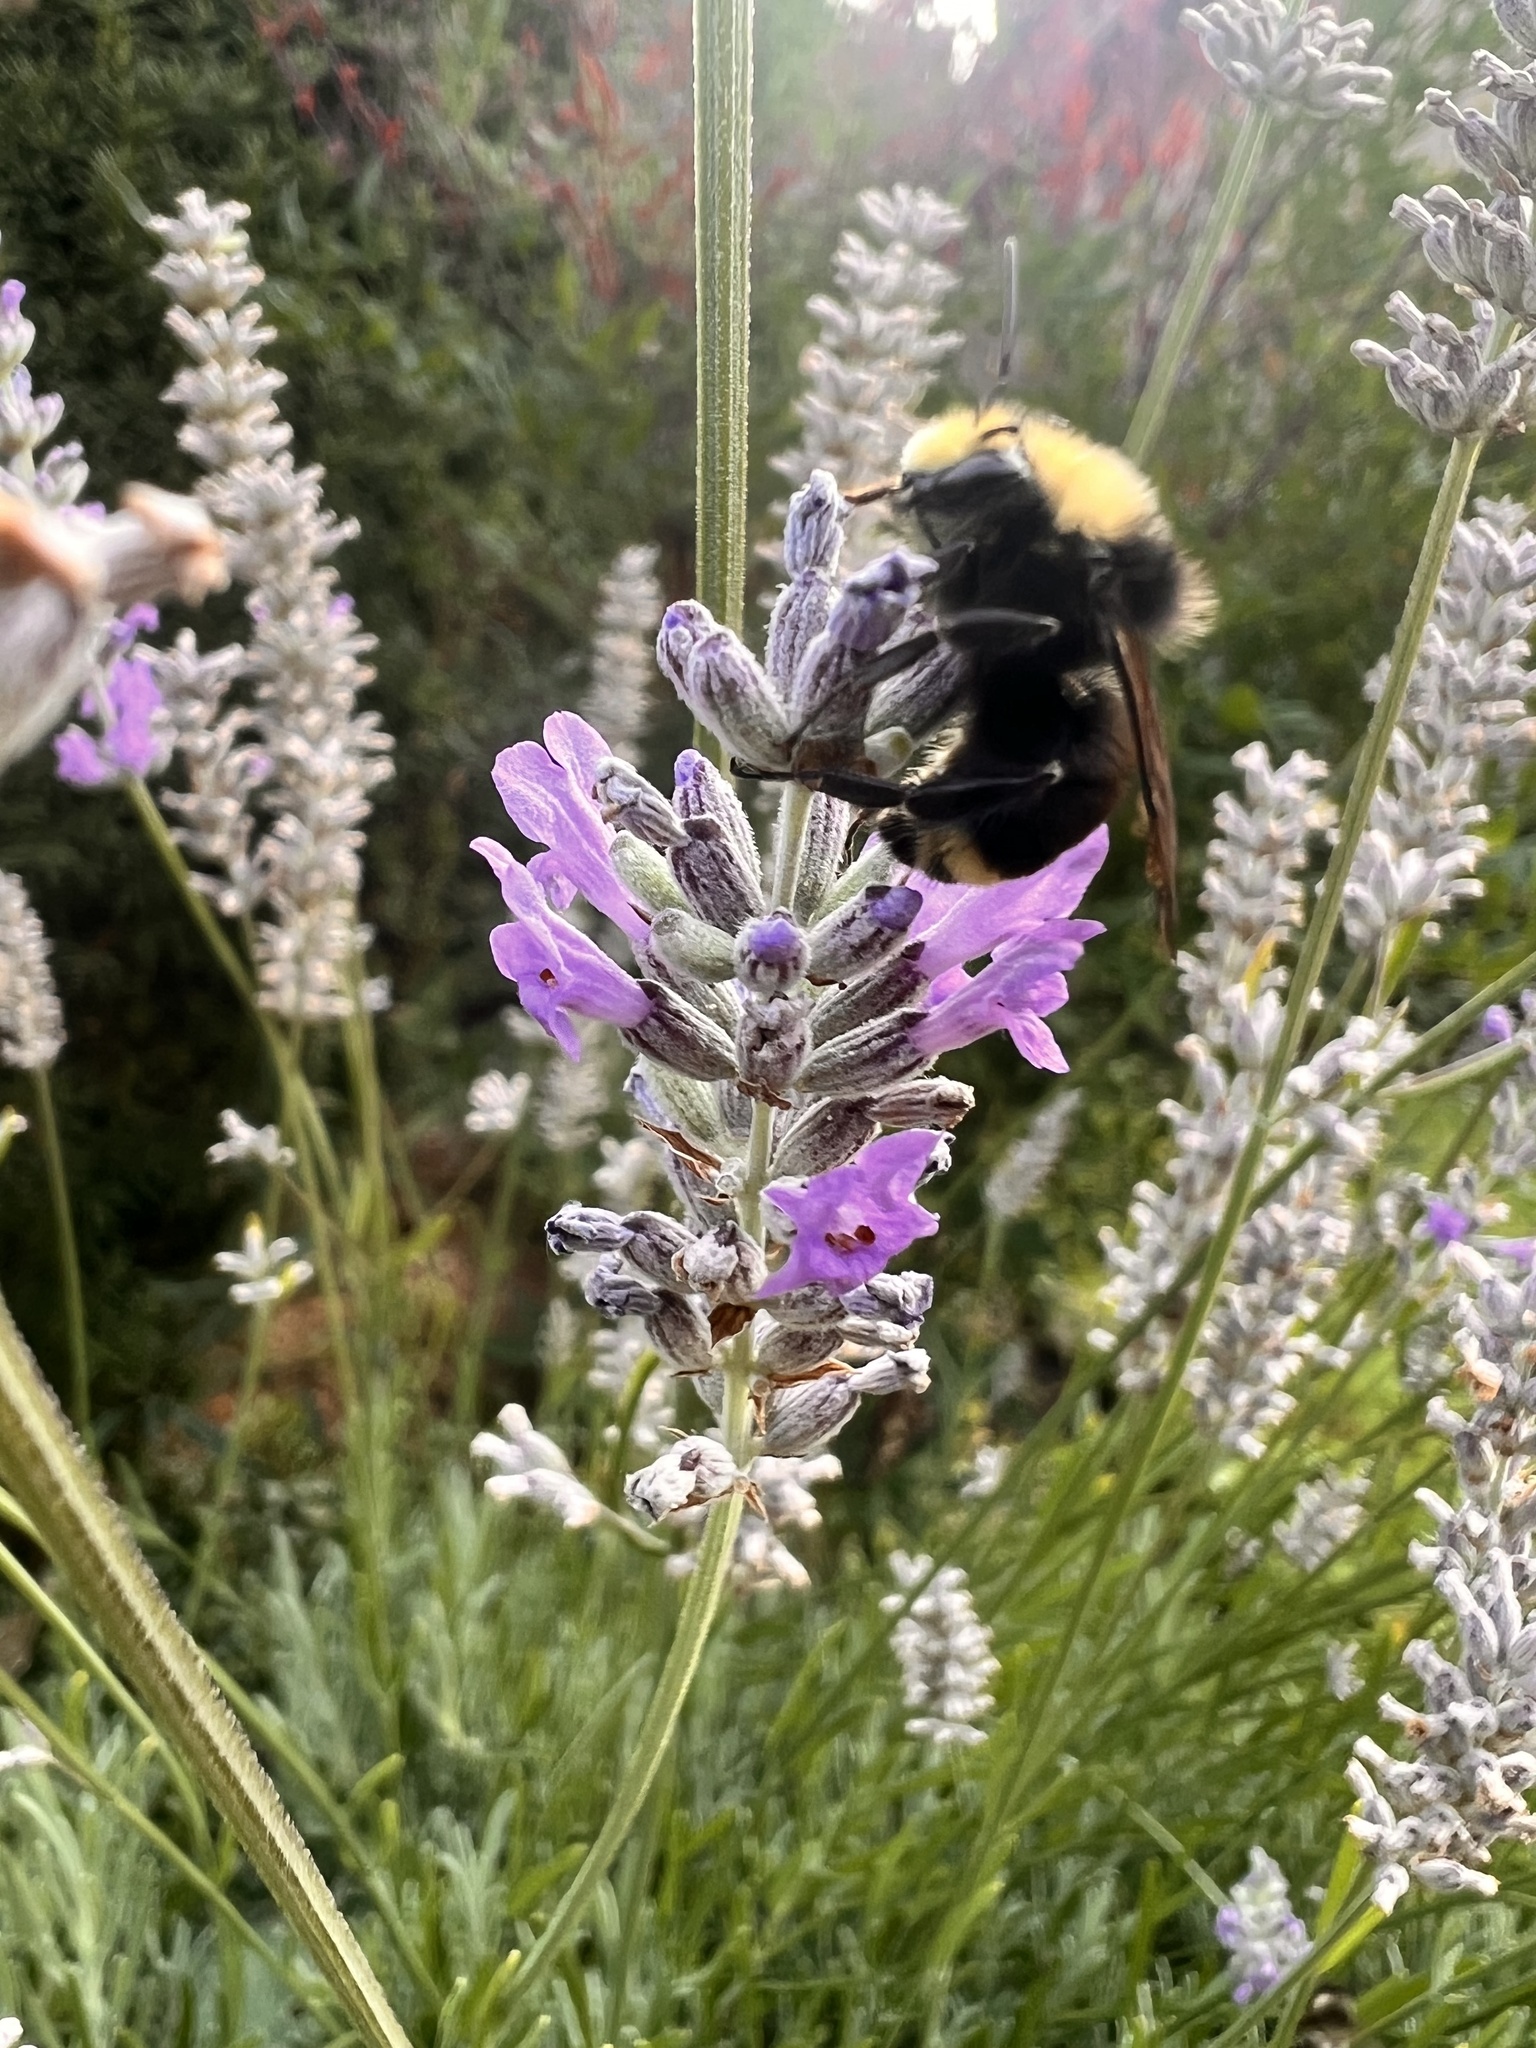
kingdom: Animalia
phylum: Arthropoda
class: Insecta
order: Hymenoptera
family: Apidae
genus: Bombus
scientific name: Bombus vosnesenskii
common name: Vosnesensky bumble bee
